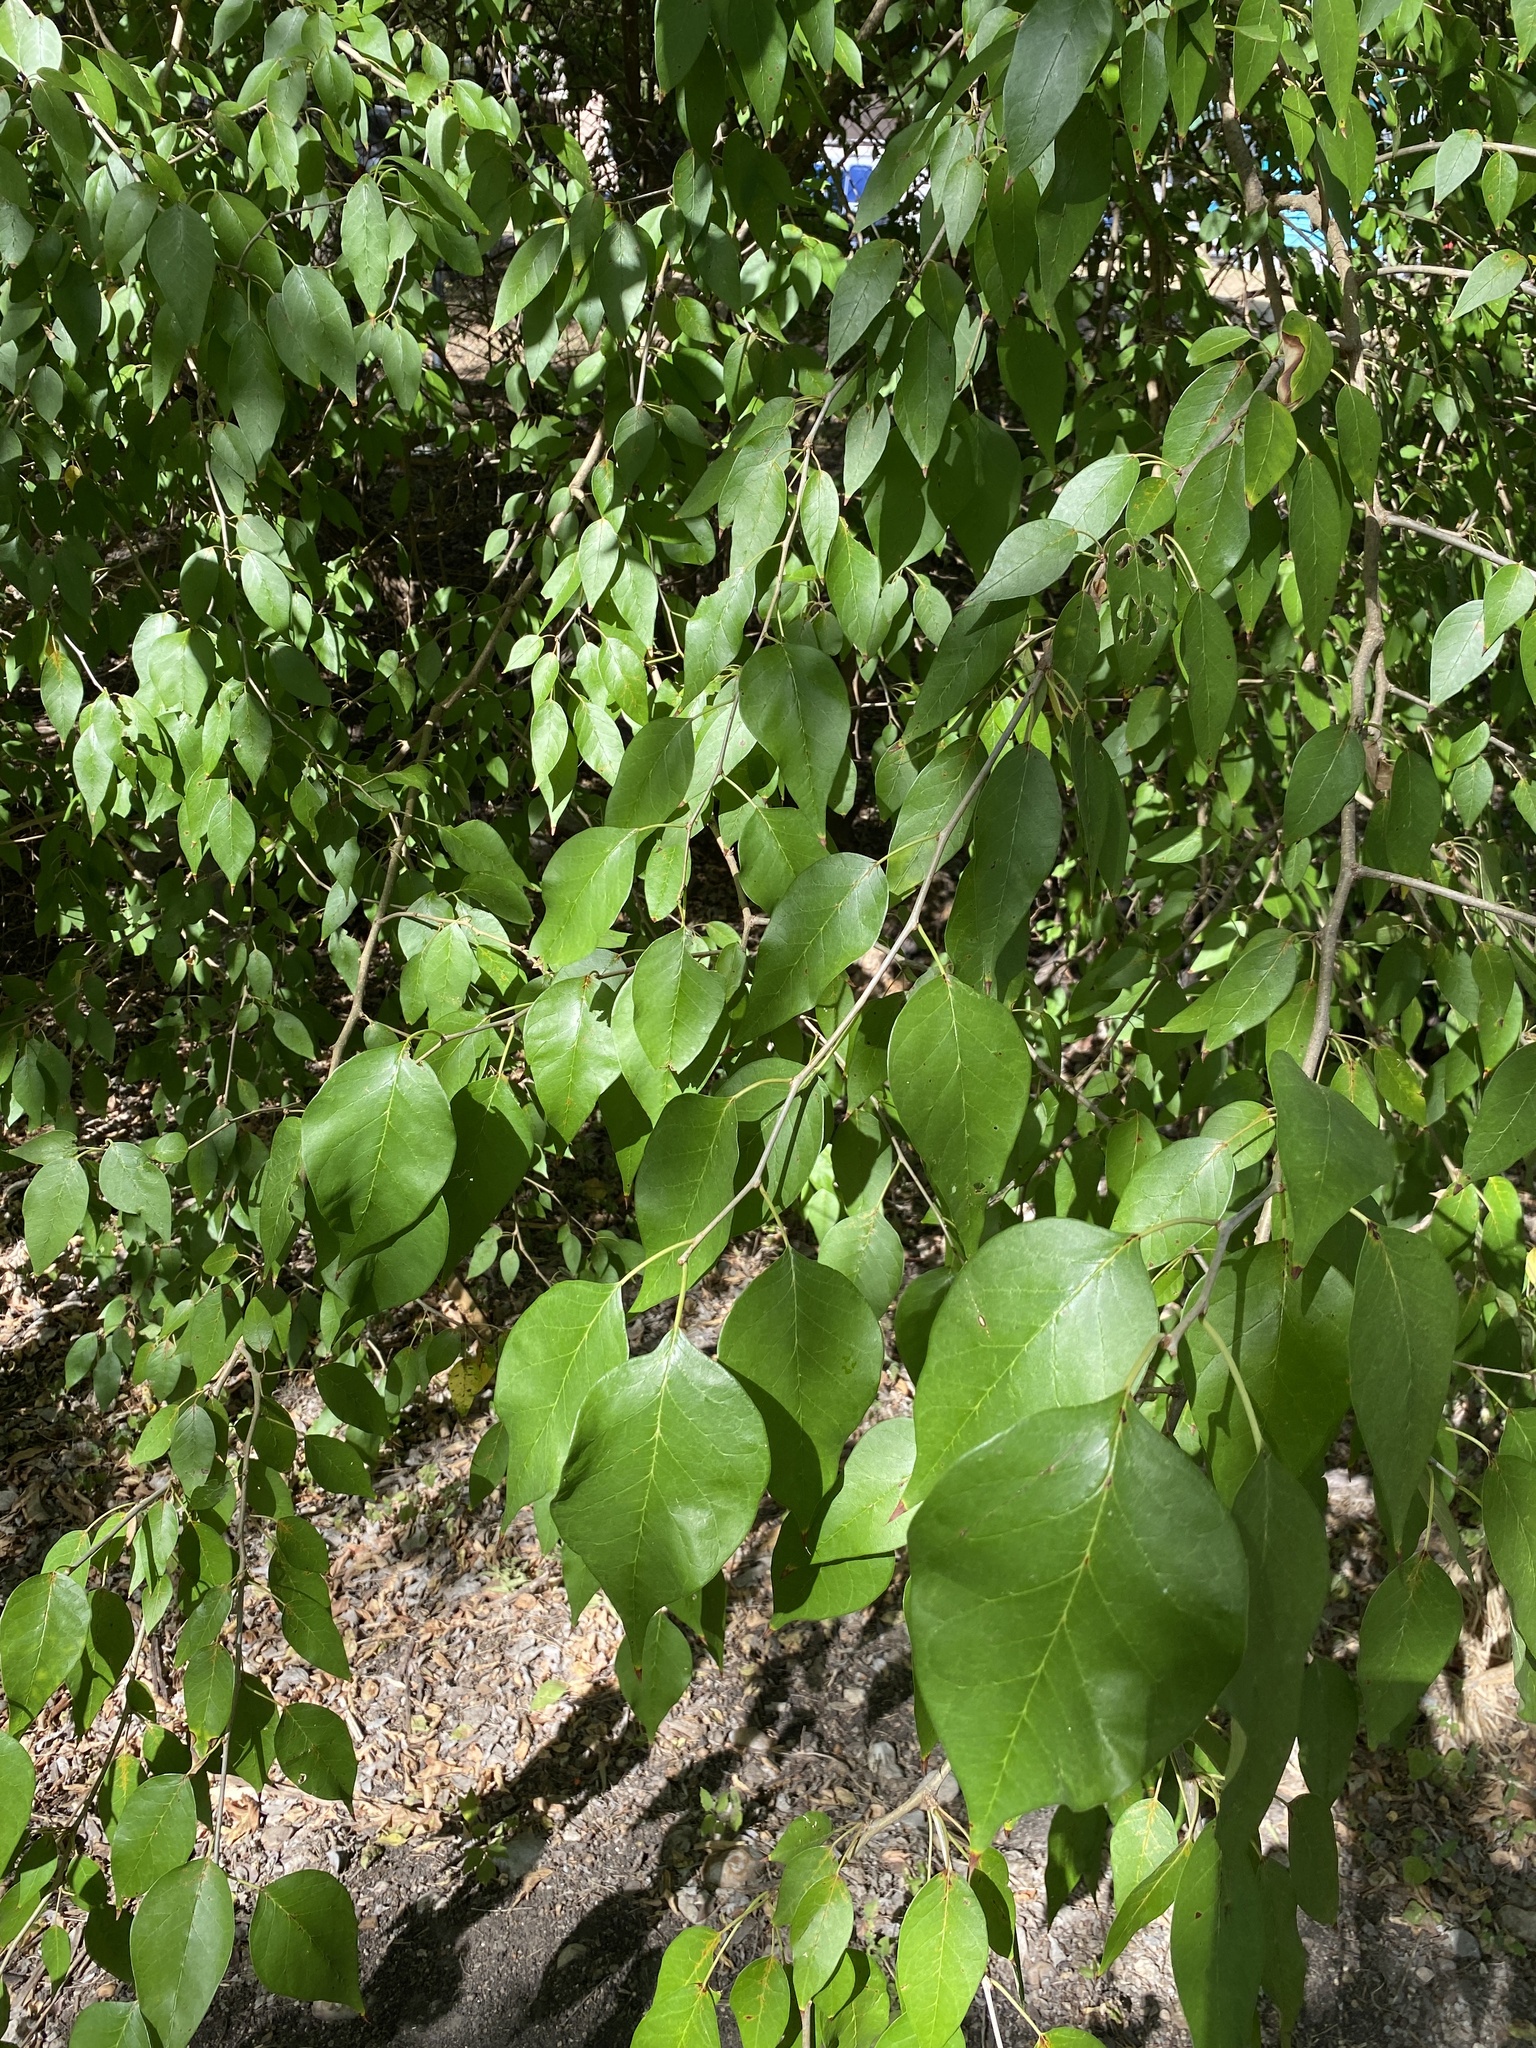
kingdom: Plantae
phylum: Tracheophyta
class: Magnoliopsida
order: Rosales
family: Moraceae
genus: Maclura
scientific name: Maclura pomifera
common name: Osage-orange
